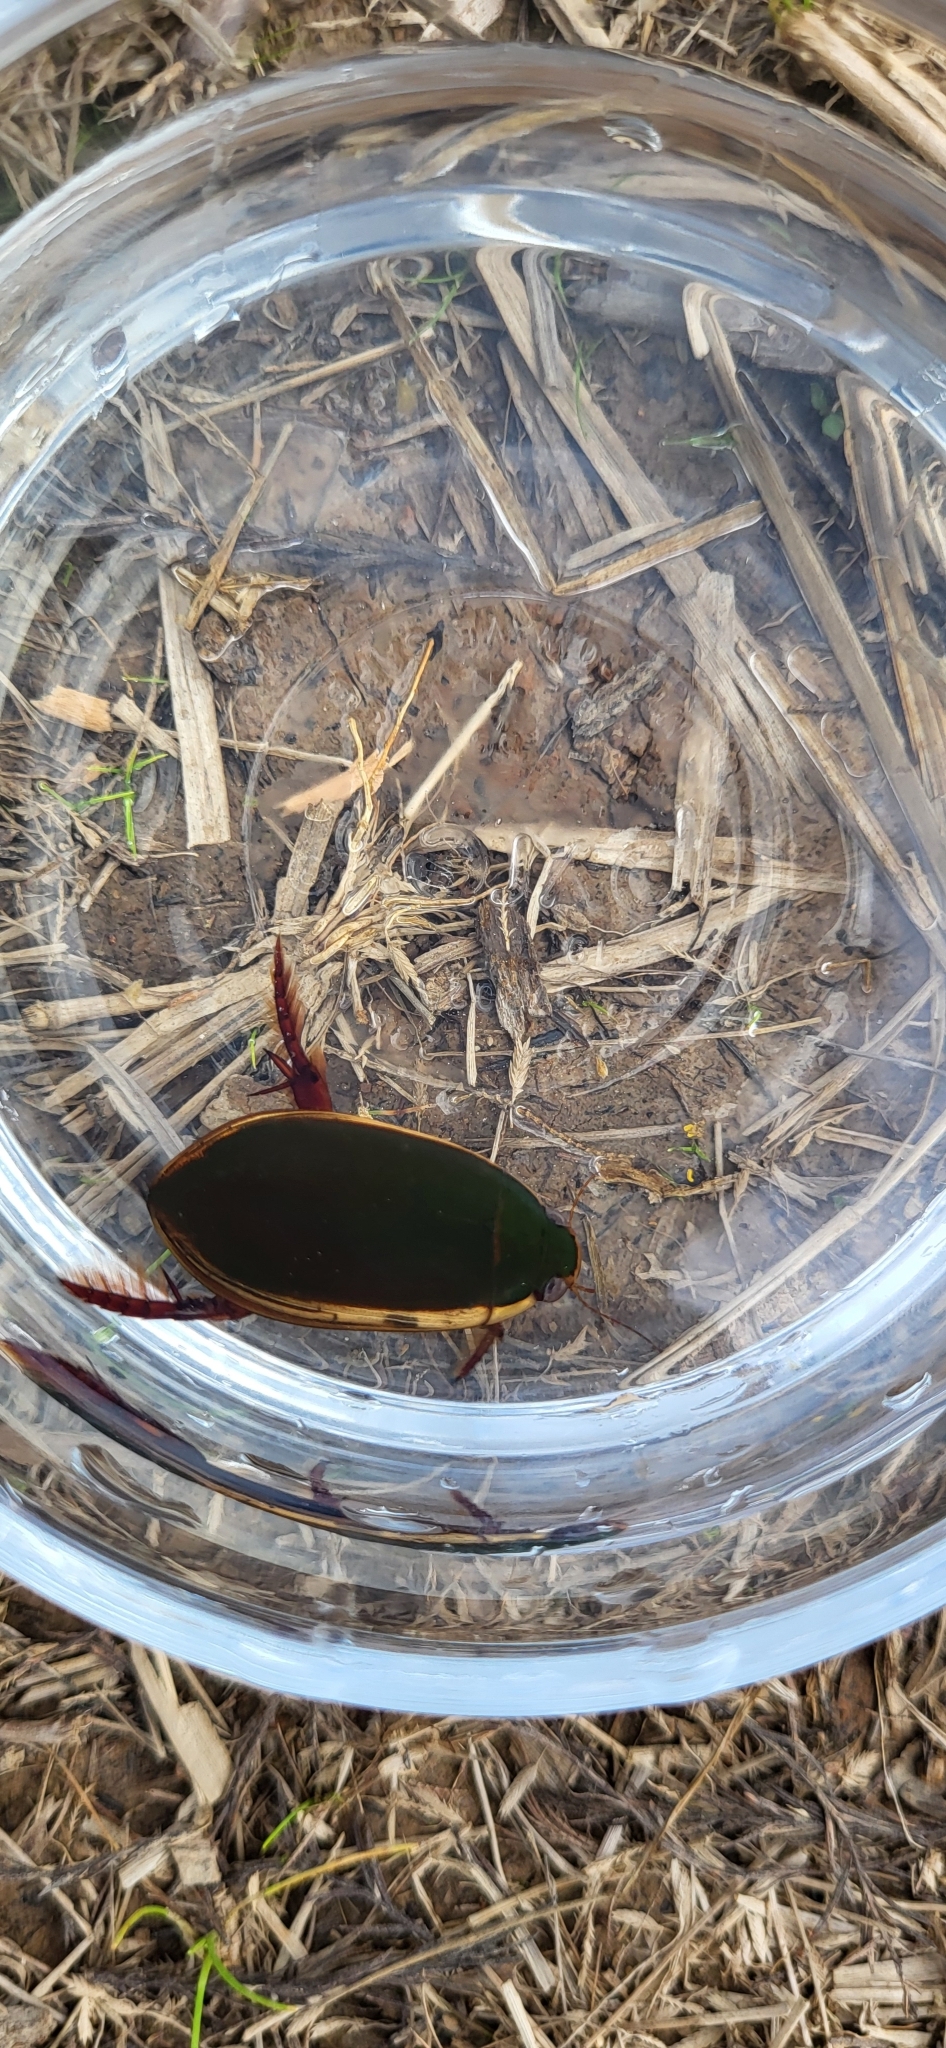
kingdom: Animalia
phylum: Arthropoda
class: Insecta
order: Coleoptera
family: Dytiscidae
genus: Cybister
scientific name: Cybister fimbriolatus
